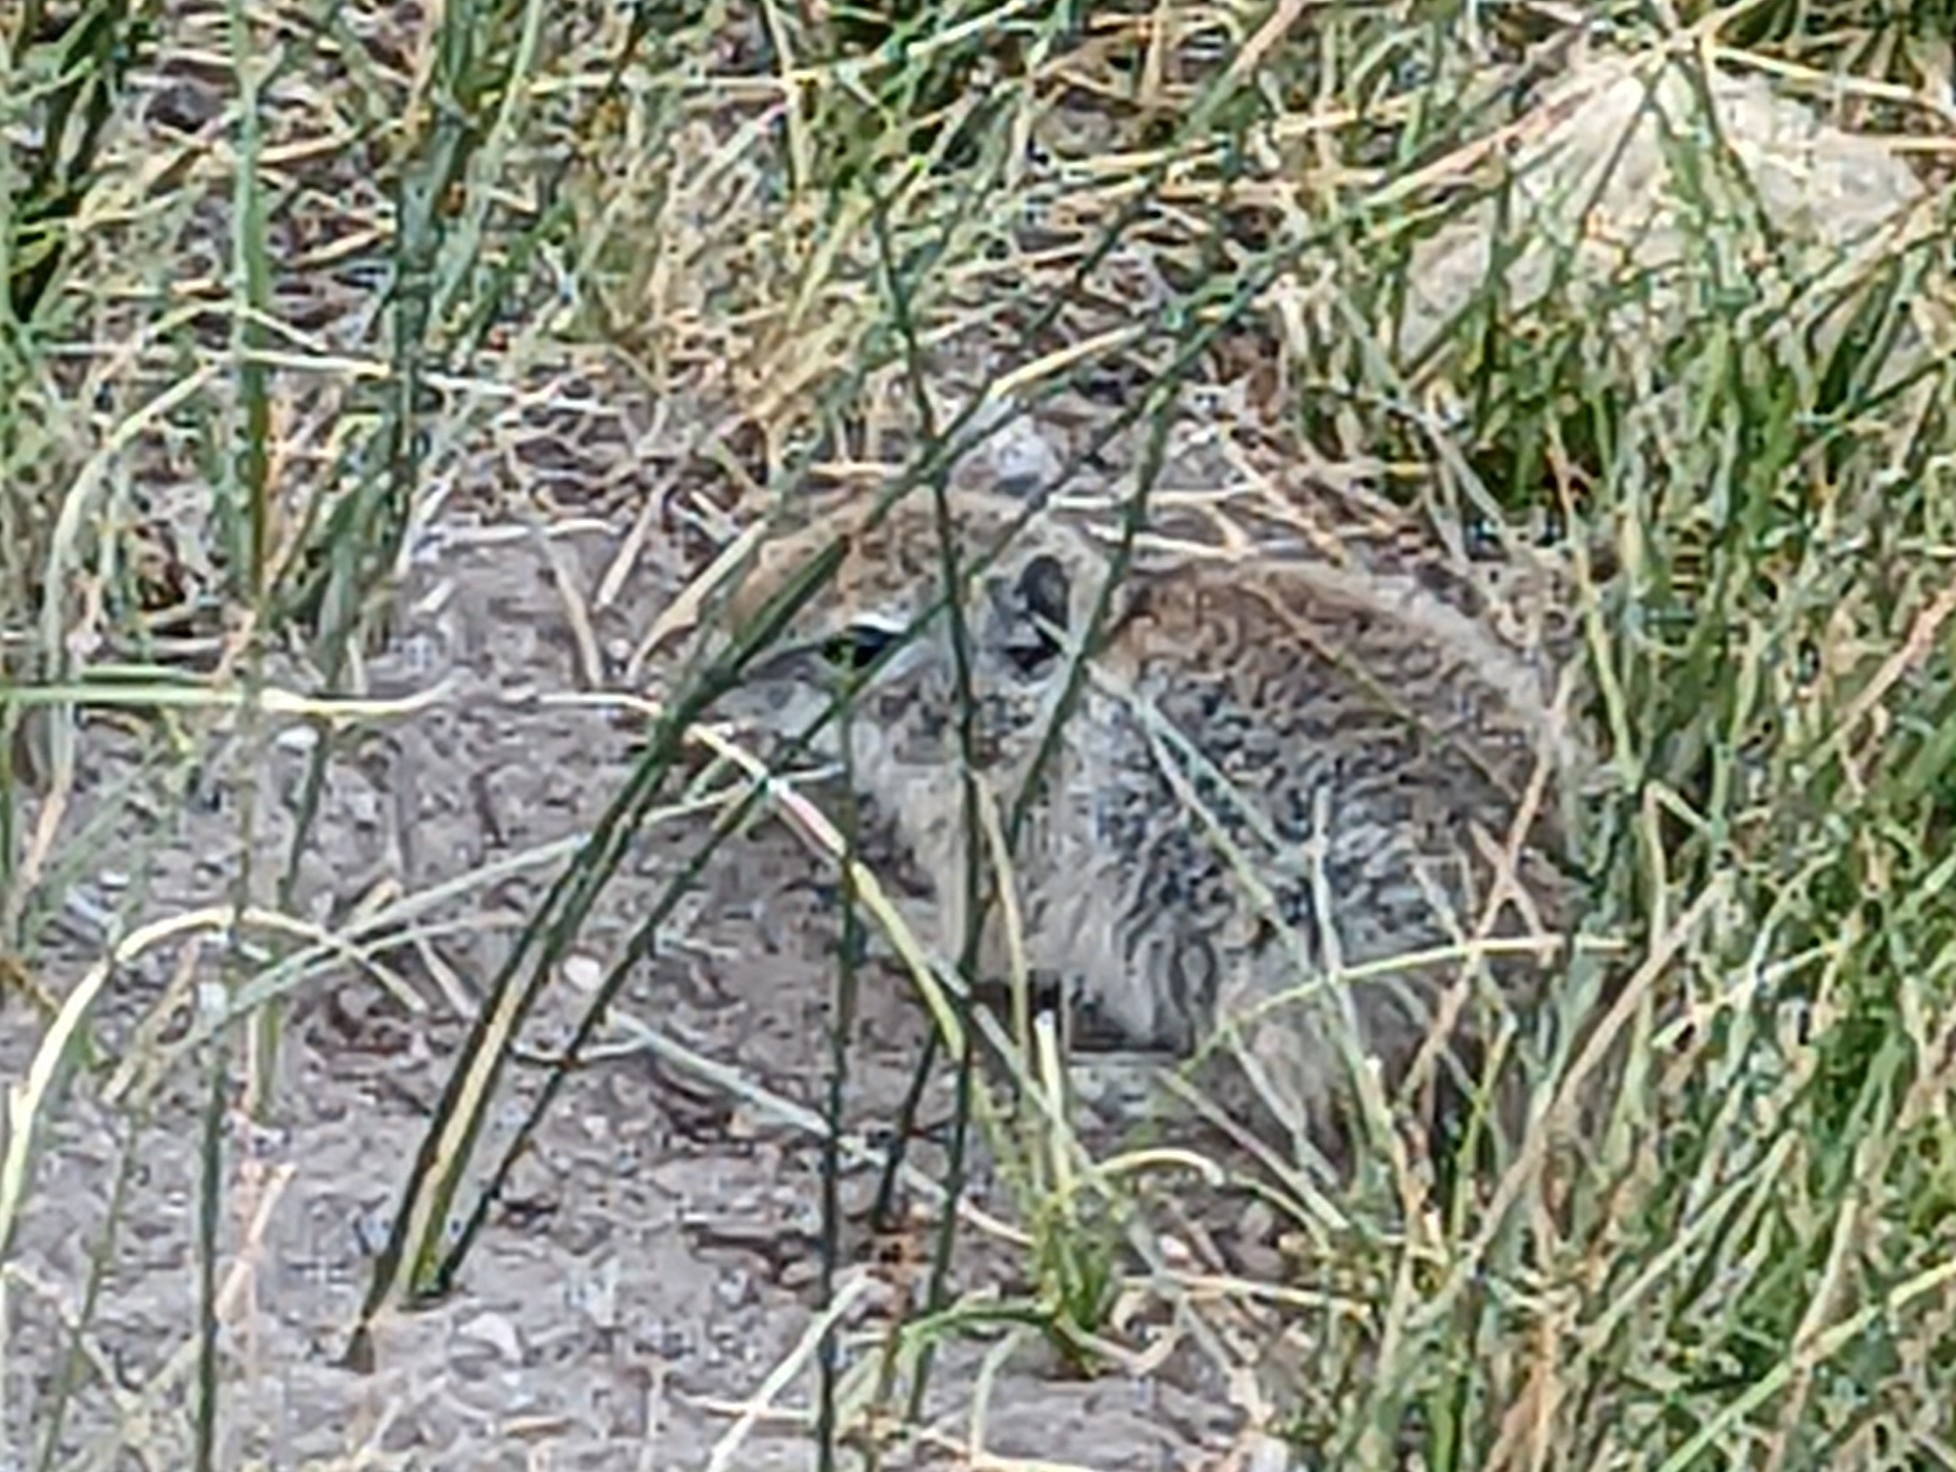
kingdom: Animalia
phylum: Chordata
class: Mammalia
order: Rodentia
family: Sciuridae
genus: Urocitellus
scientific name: Urocitellus beldingi
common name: Belding's ground squirrel
